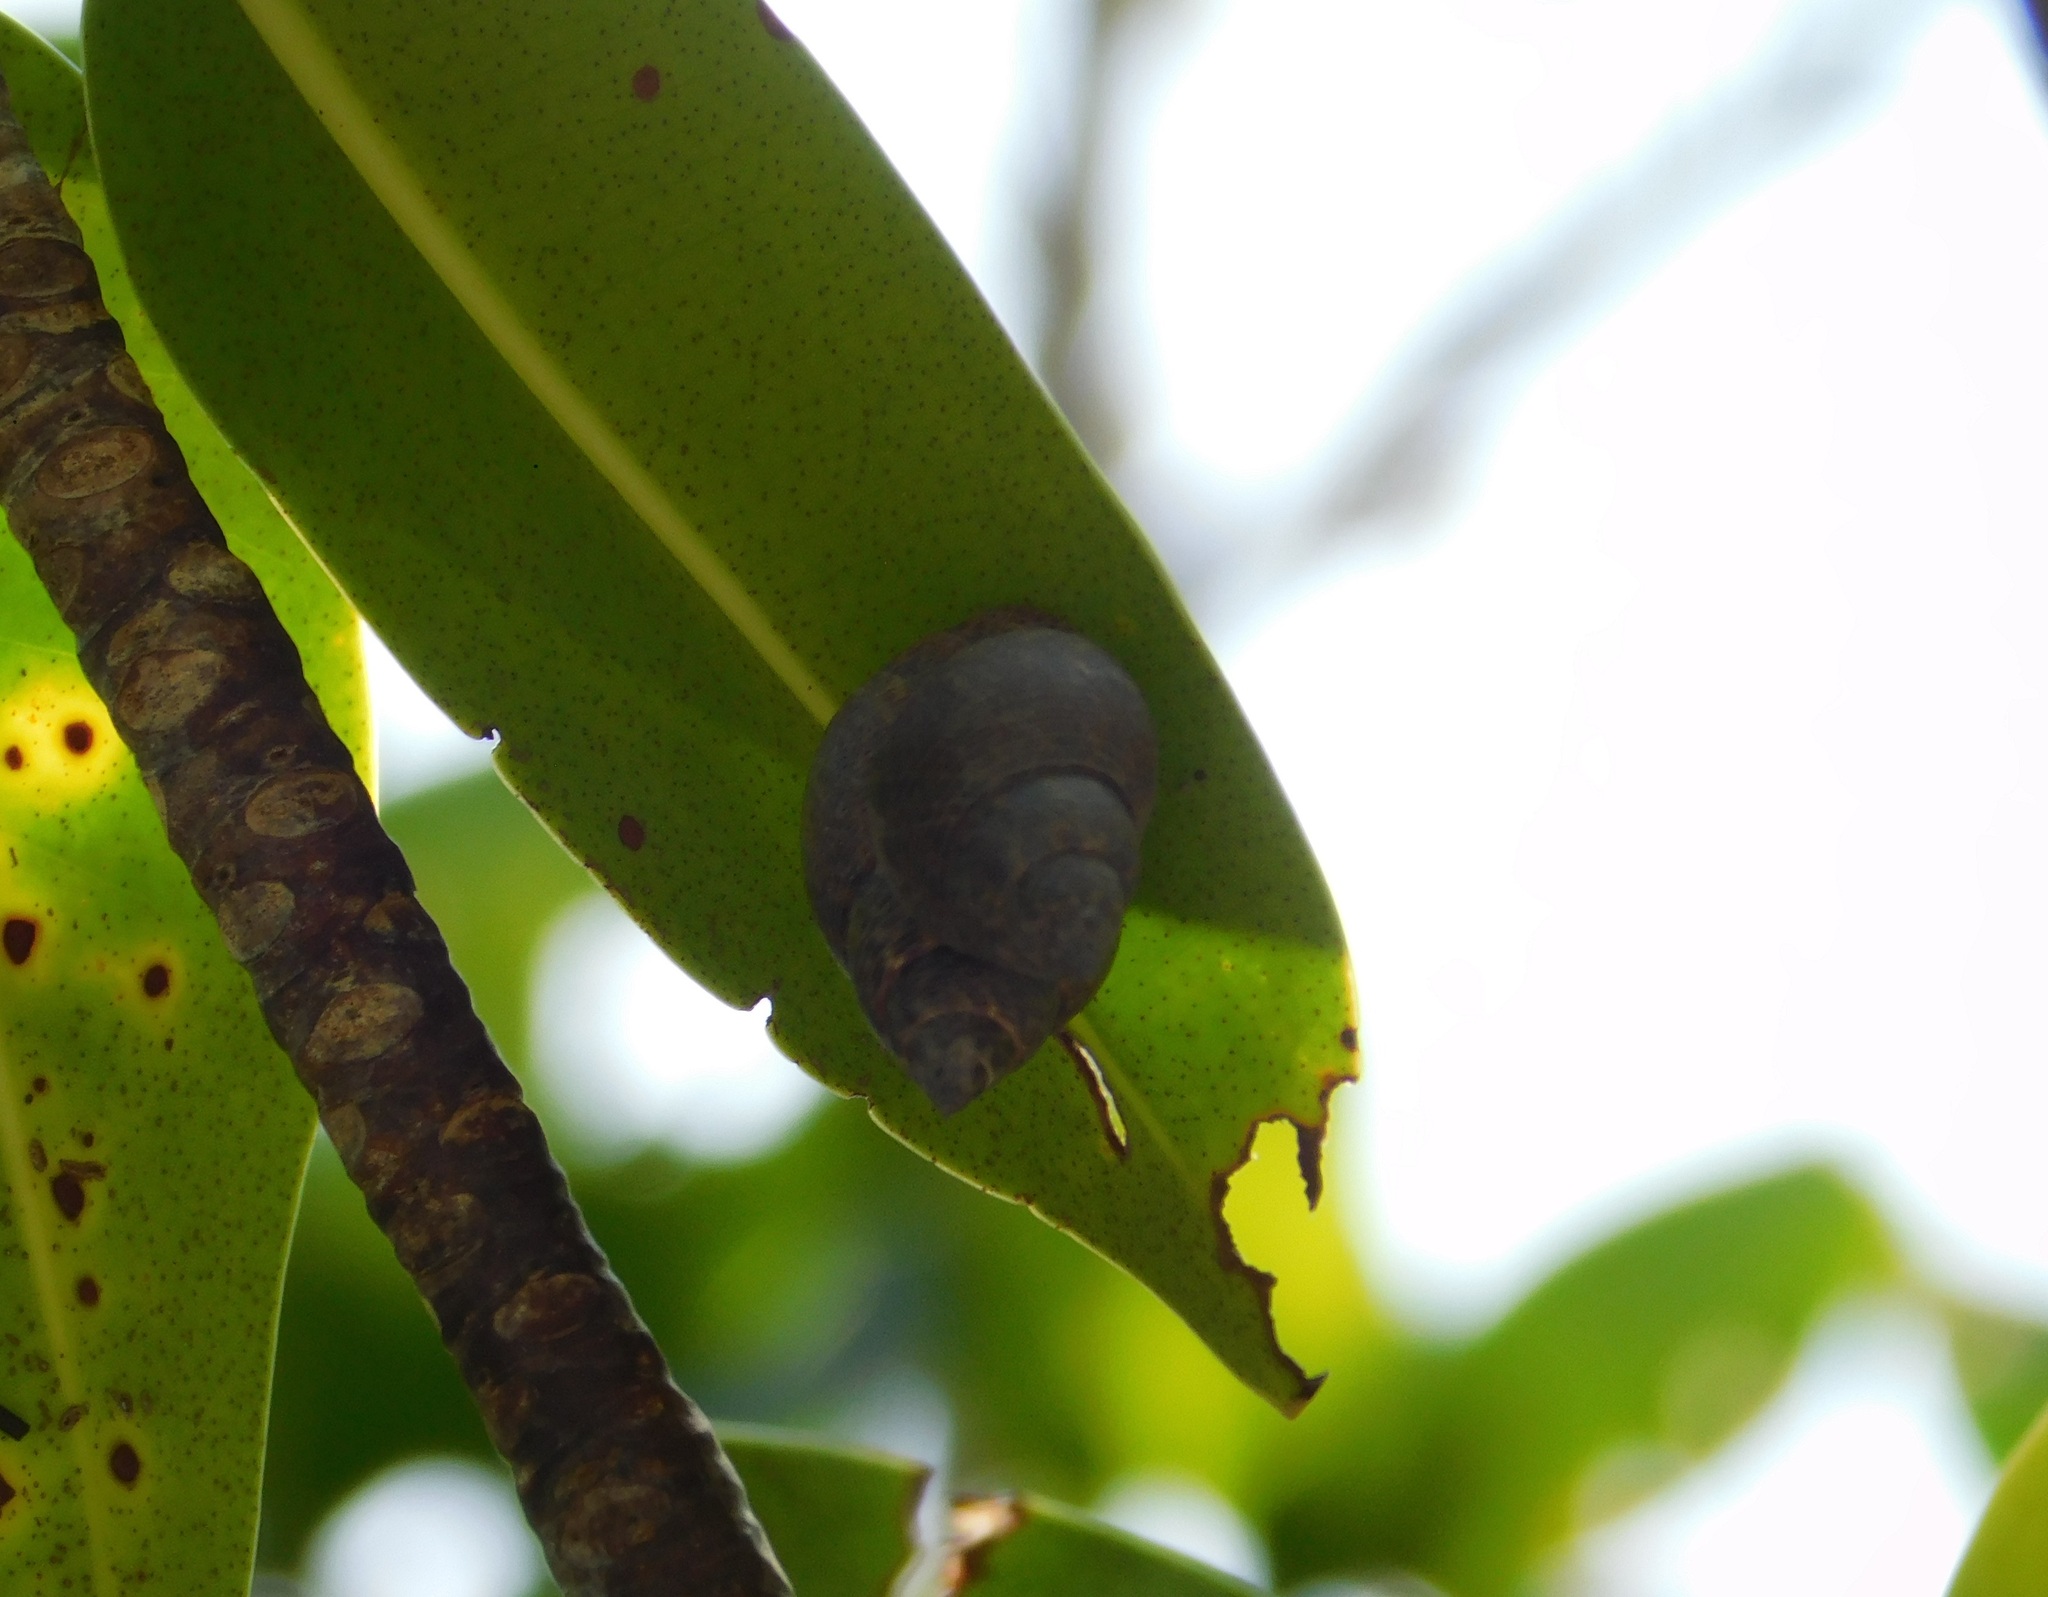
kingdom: Animalia
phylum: Mollusca
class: Gastropoda
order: Littorinimorpha
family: Littorinidae
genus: Littoraria
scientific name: Littoraria angulifera
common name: Mangrove periwinkle
